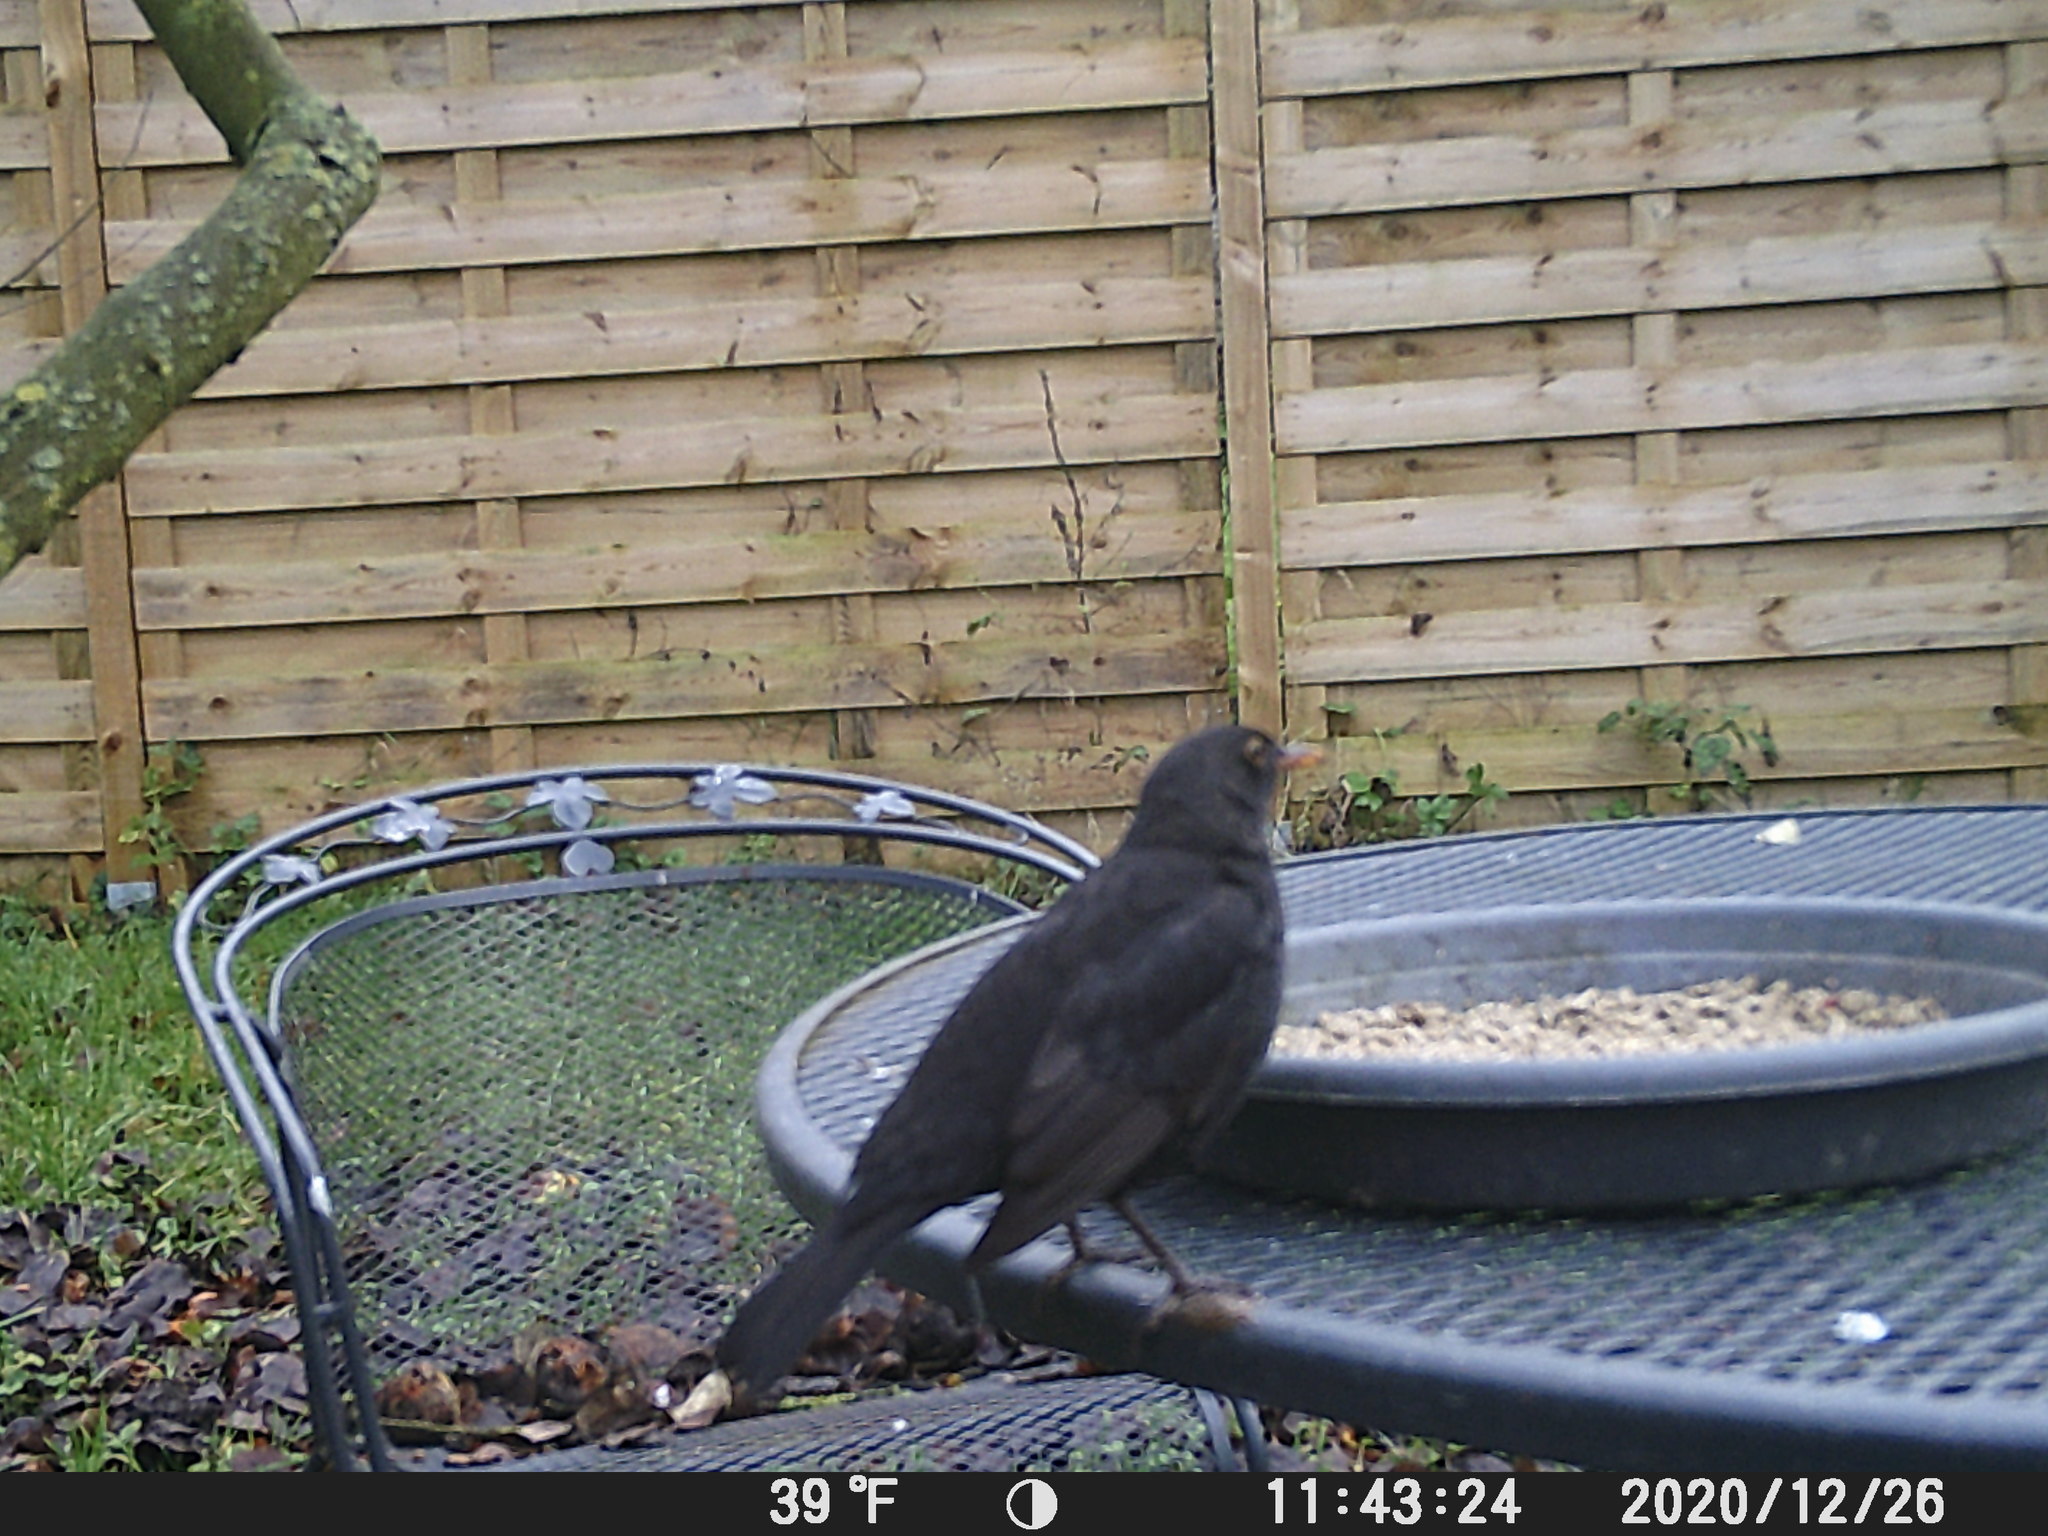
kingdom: Animalia
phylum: Chordata
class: Aves
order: Passeriformes
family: Turdidae
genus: Turdus
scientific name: Turdus merula
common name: Common blackbird
